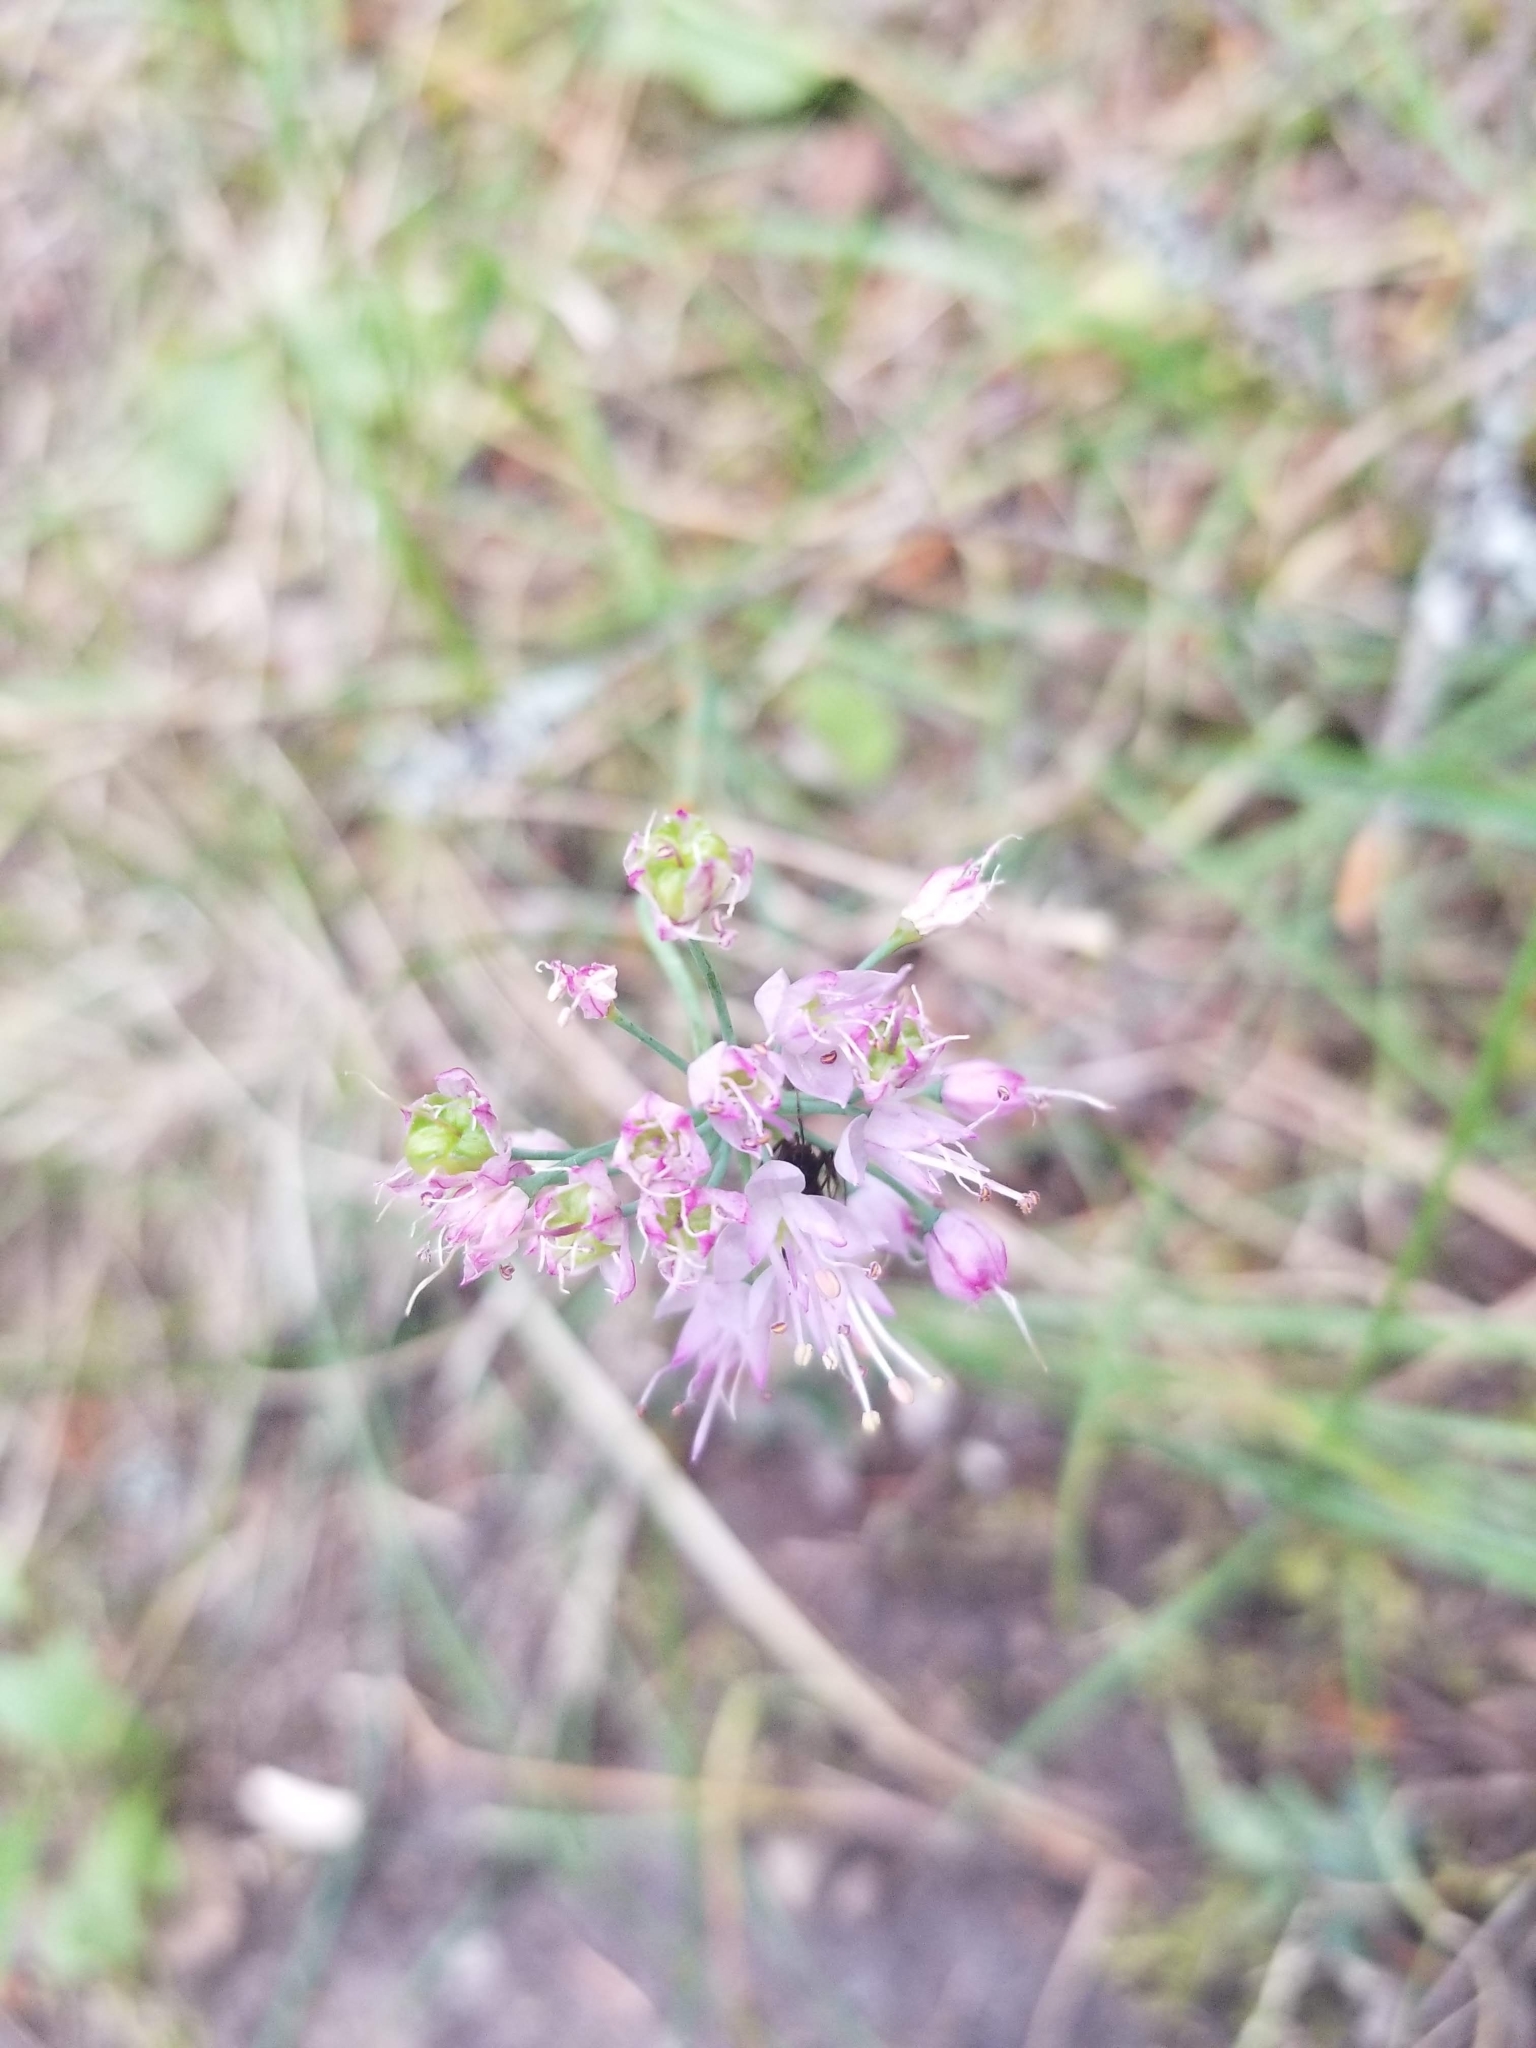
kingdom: Plantae
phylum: Tracheophyta
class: Liliopsida
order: Asparagales
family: Amaryllidaceae
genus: Allium
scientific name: Allium cernuum
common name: Nodding onion
